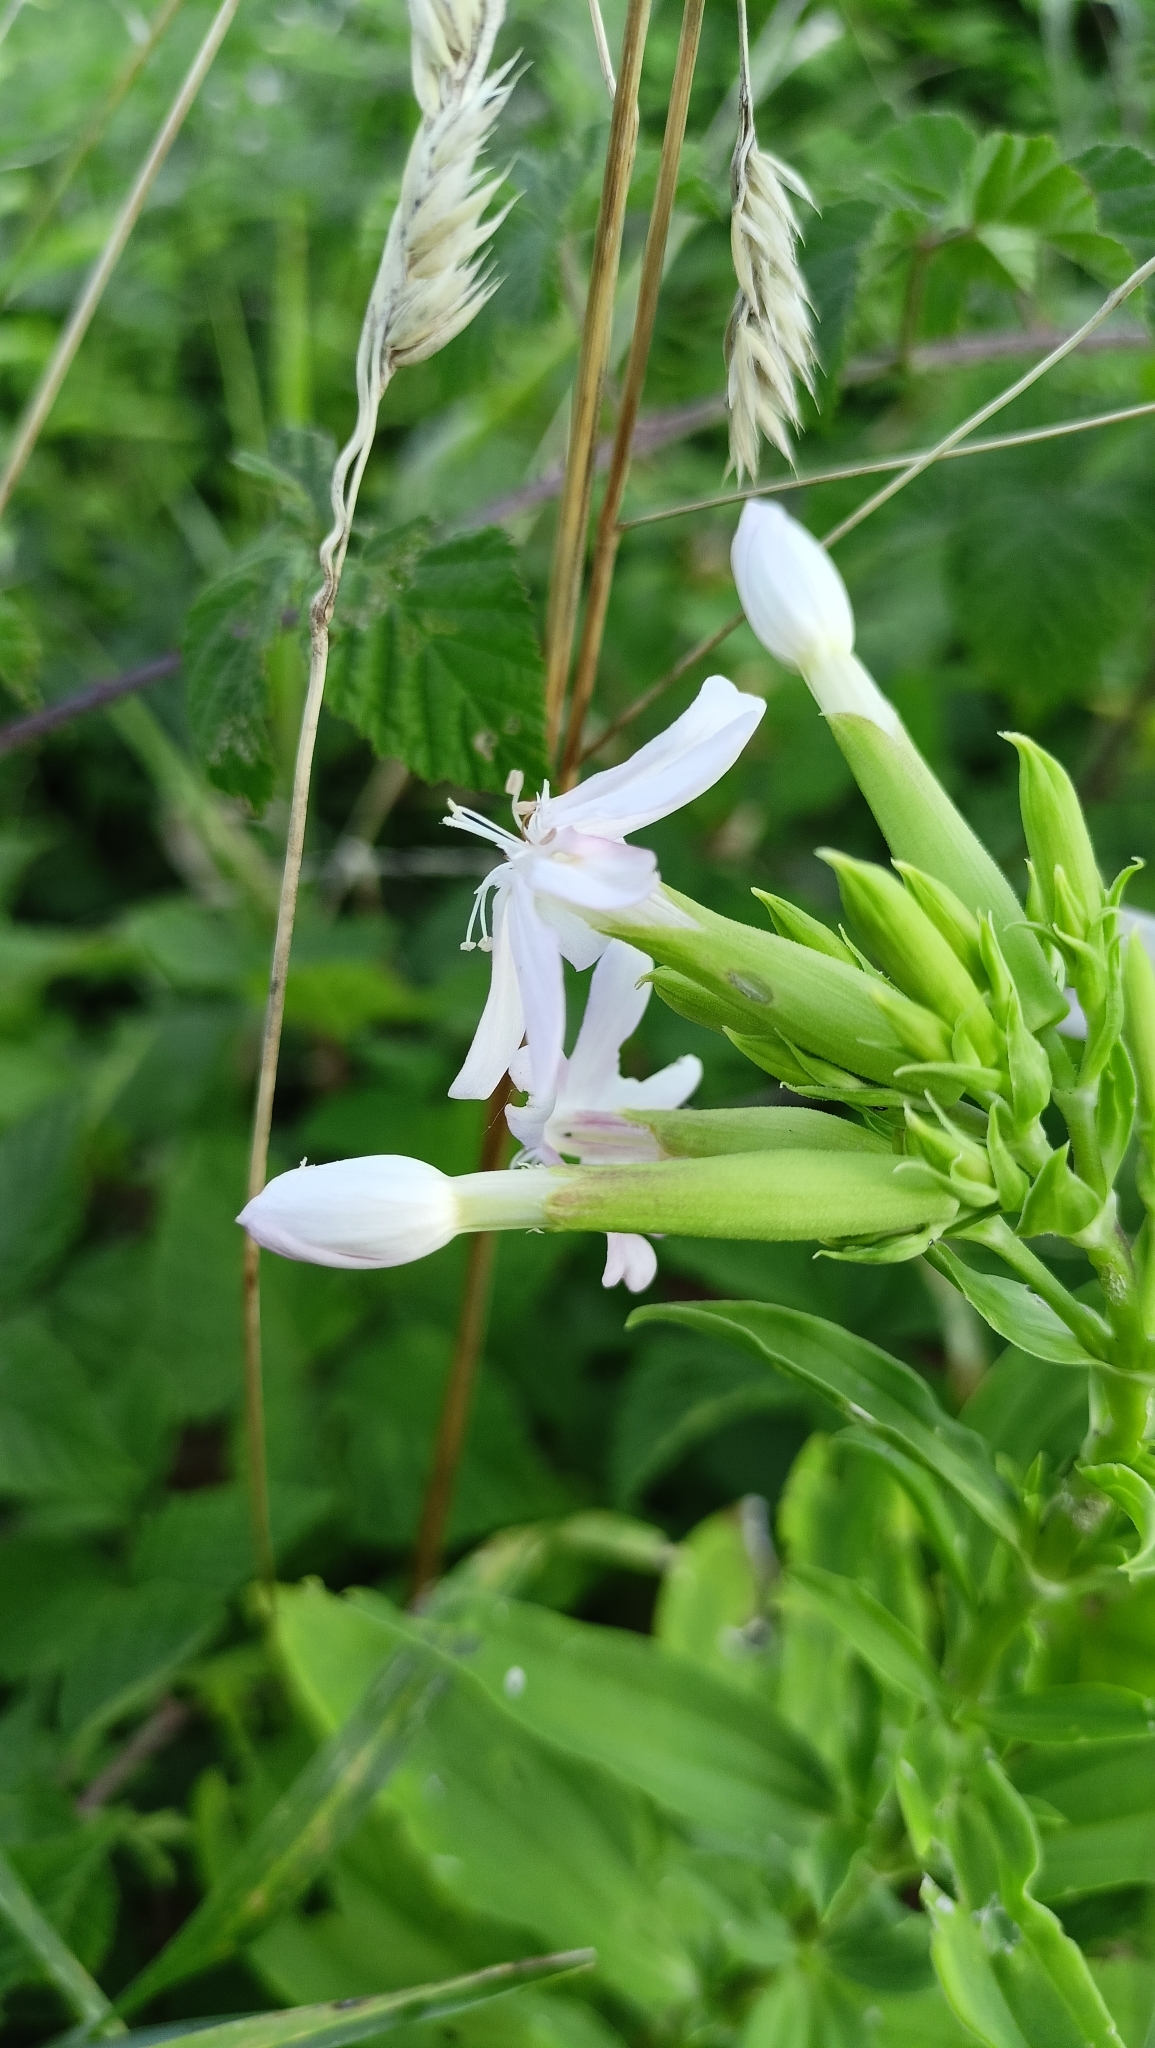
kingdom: Plantae
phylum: Tracheophyta
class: Magnoliopsida
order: Caryophyllales
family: Caryophyllaceae
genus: Saponaria
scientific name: Saponaria officinalis
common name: Soapwort
